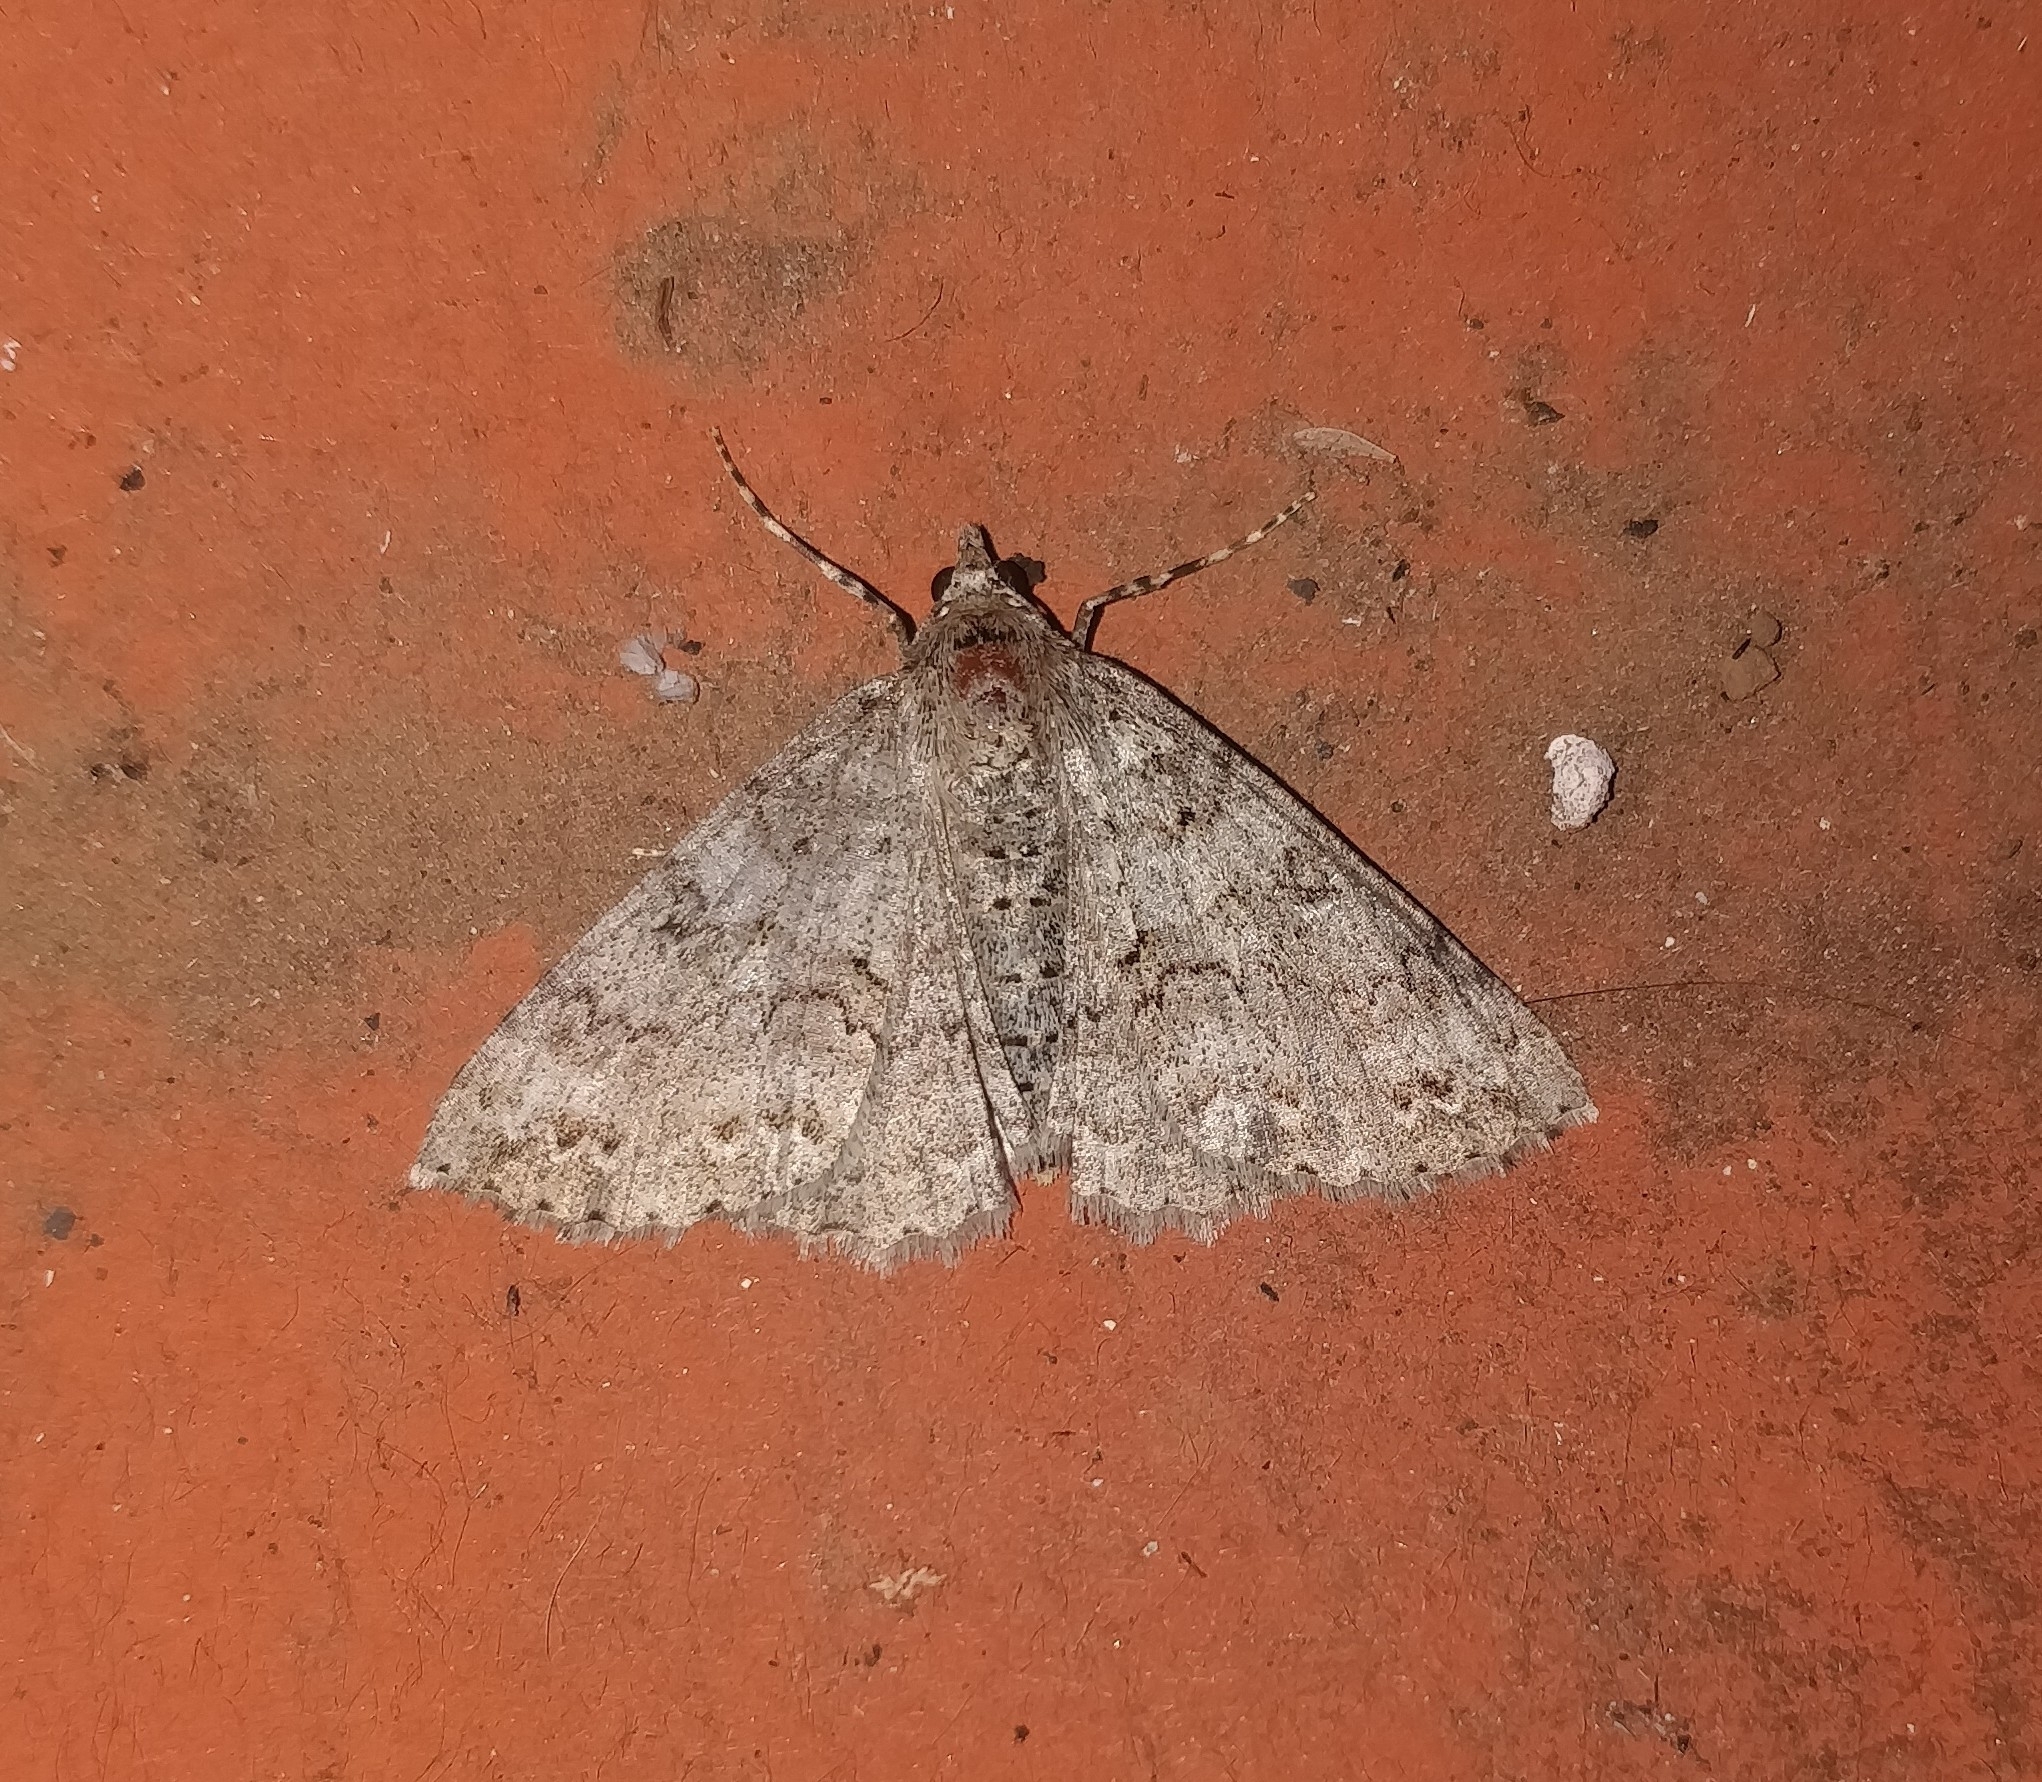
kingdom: Animalia
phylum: Arthropoda
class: Insecta
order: Lepidoptera
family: Geometridae
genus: Ascotis
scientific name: Ascotis fortunata
